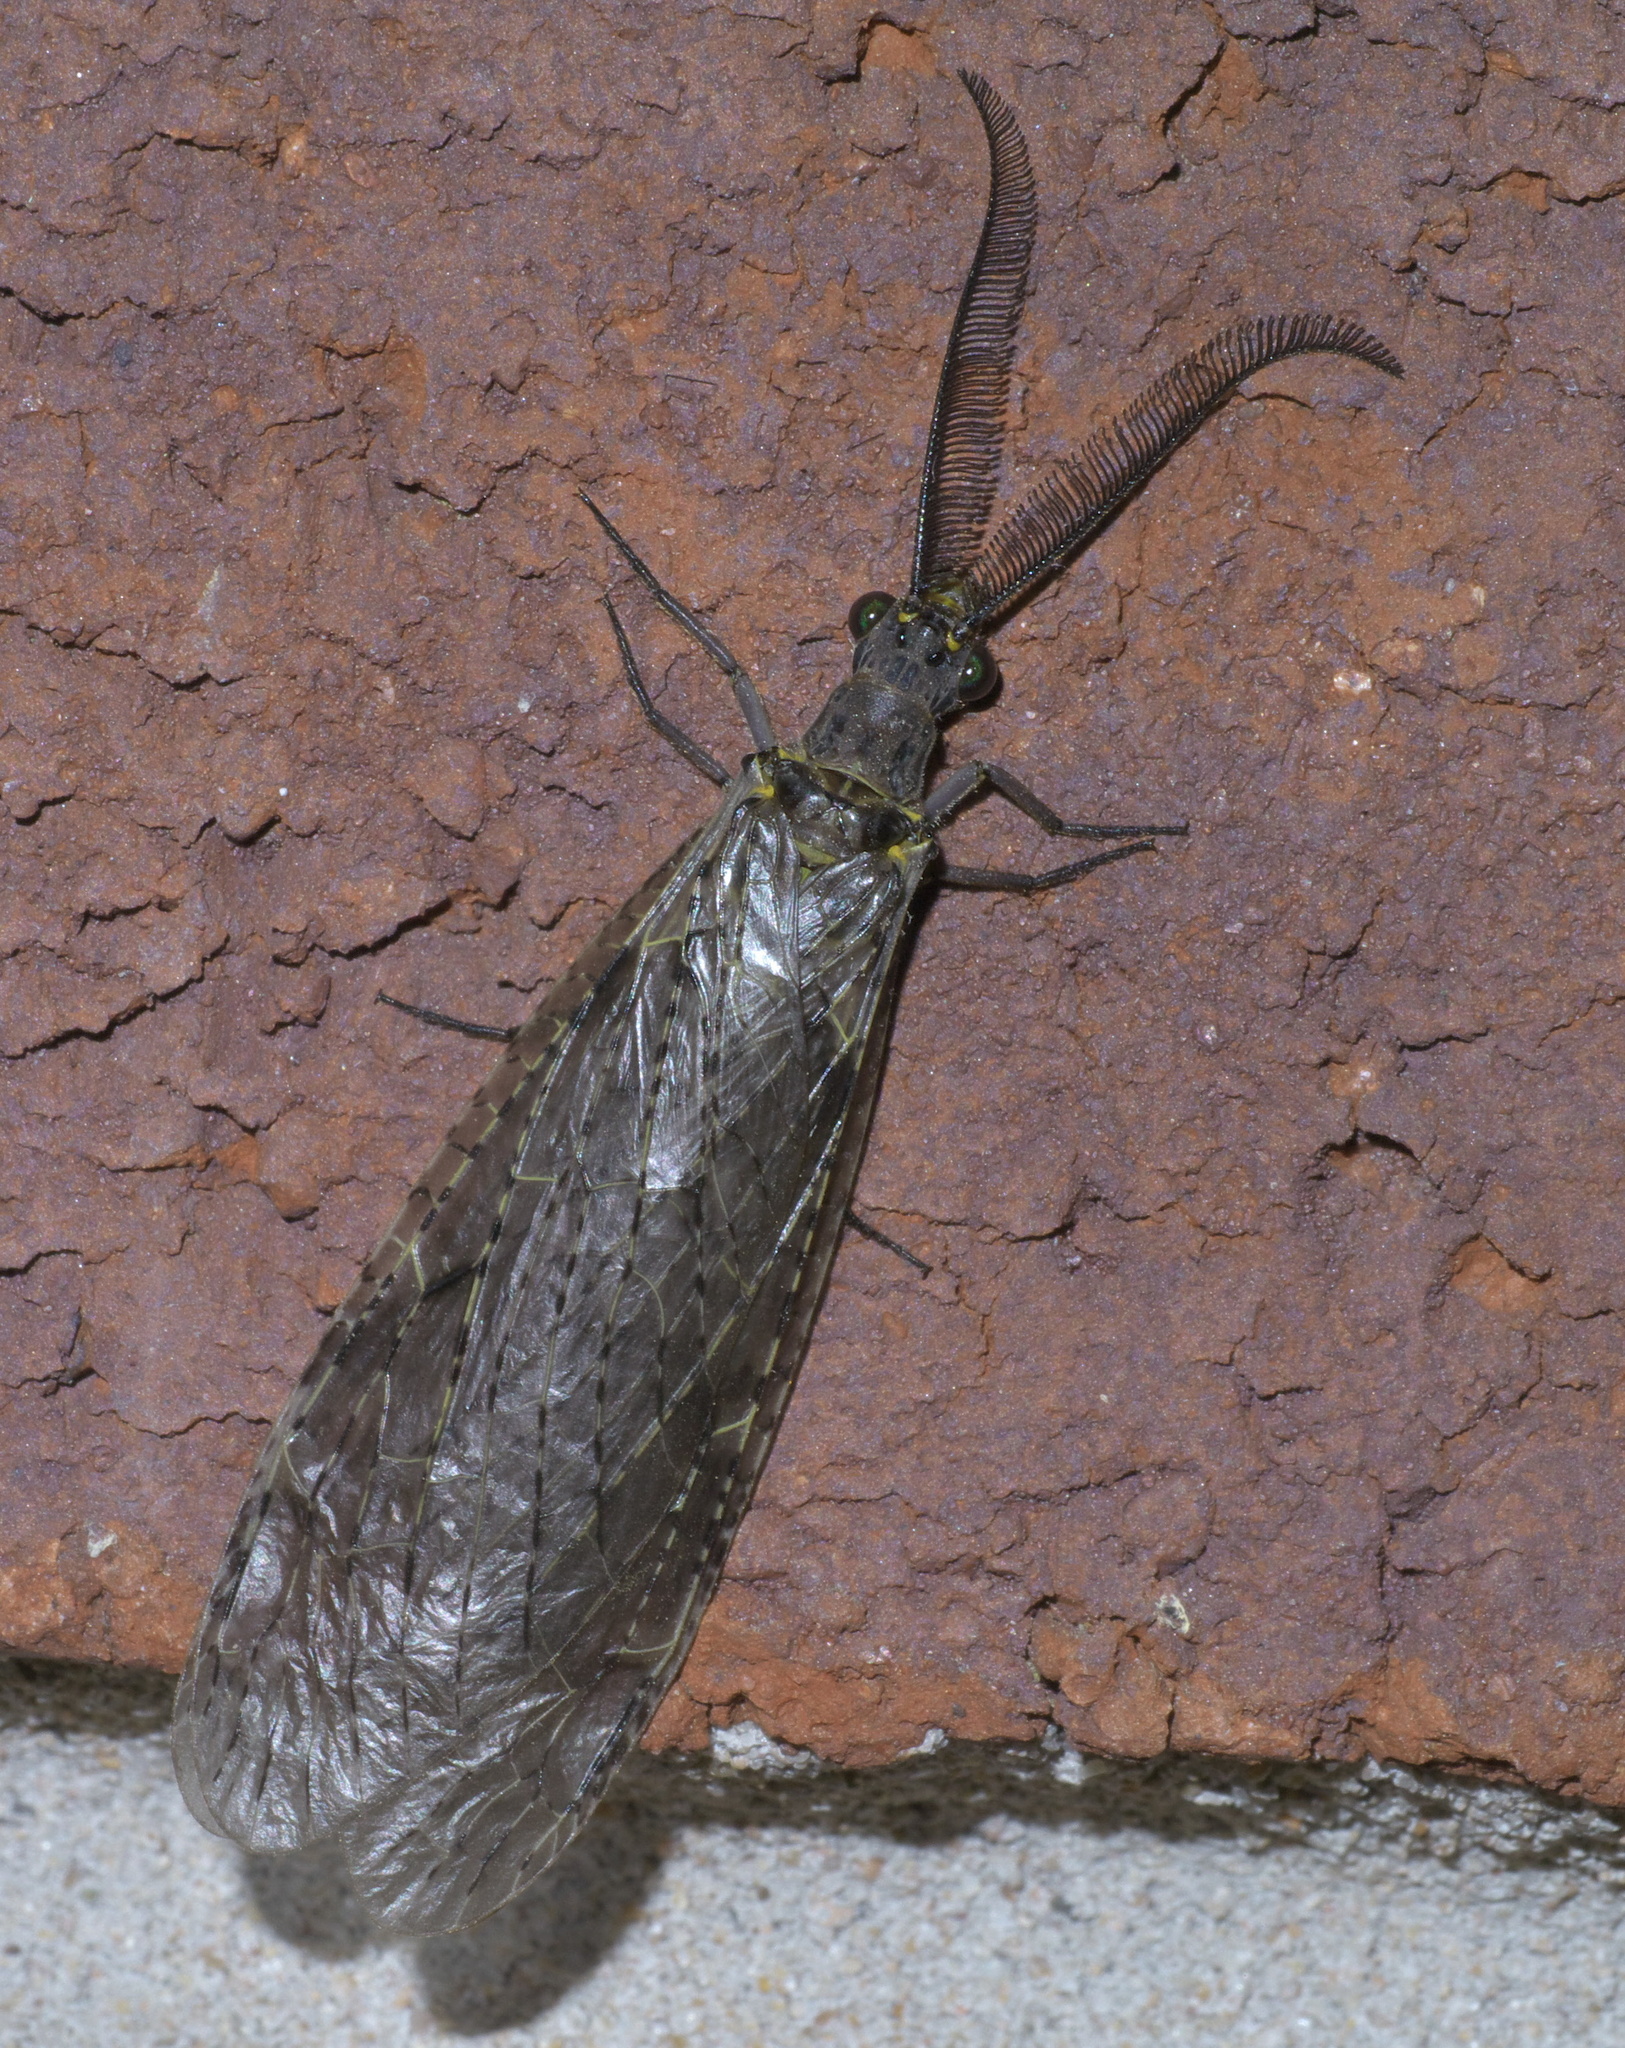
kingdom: Animalia
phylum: Arthropoda
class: Insecta
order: Megaloptera
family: Corydalidae
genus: Chauliodes
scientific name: Chauliodes rastricornis
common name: Spring fishfly
